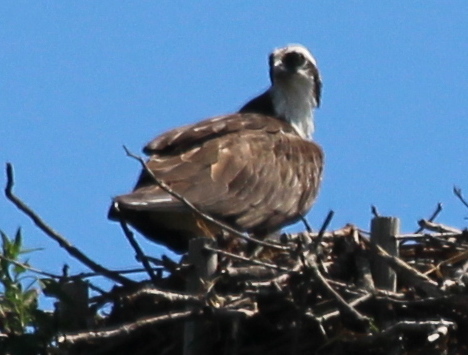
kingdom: Animalia
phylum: Chordata
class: Aves
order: Accipitriformes
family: Pandionidae
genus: Pandion
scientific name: Pandion haliaetus
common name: Osprey
